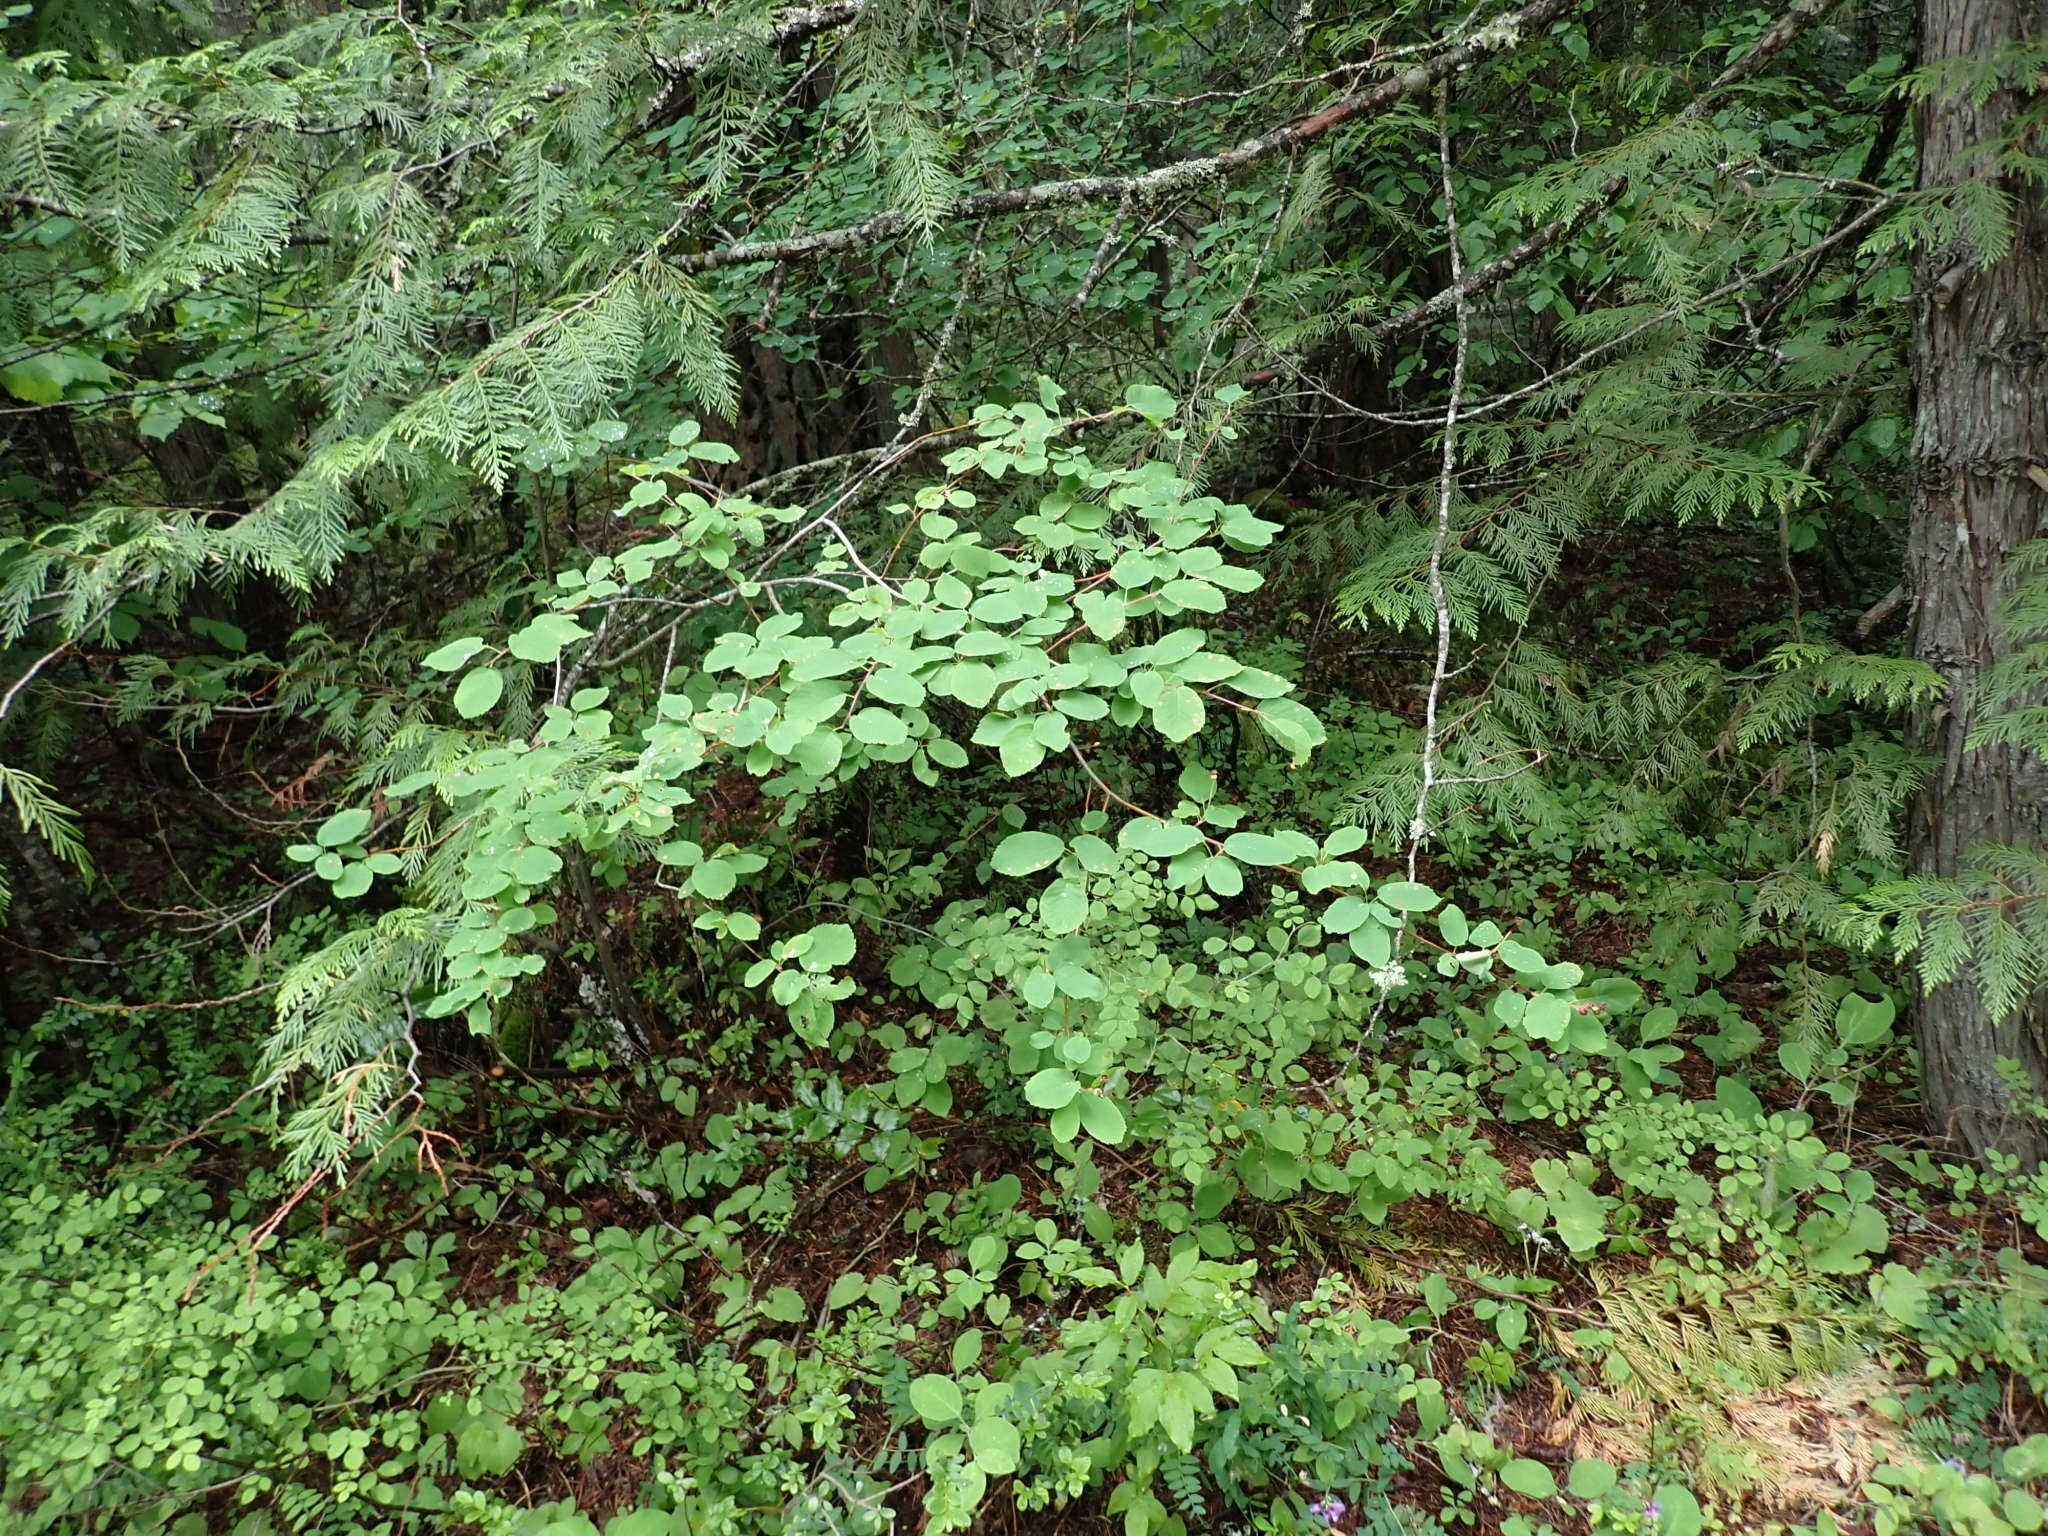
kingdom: Plantae
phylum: Tracheophyta
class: Magnoliopsida
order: Rosales
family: Rosaceae
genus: Amelanchier
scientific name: Amelanchier alnifolia
